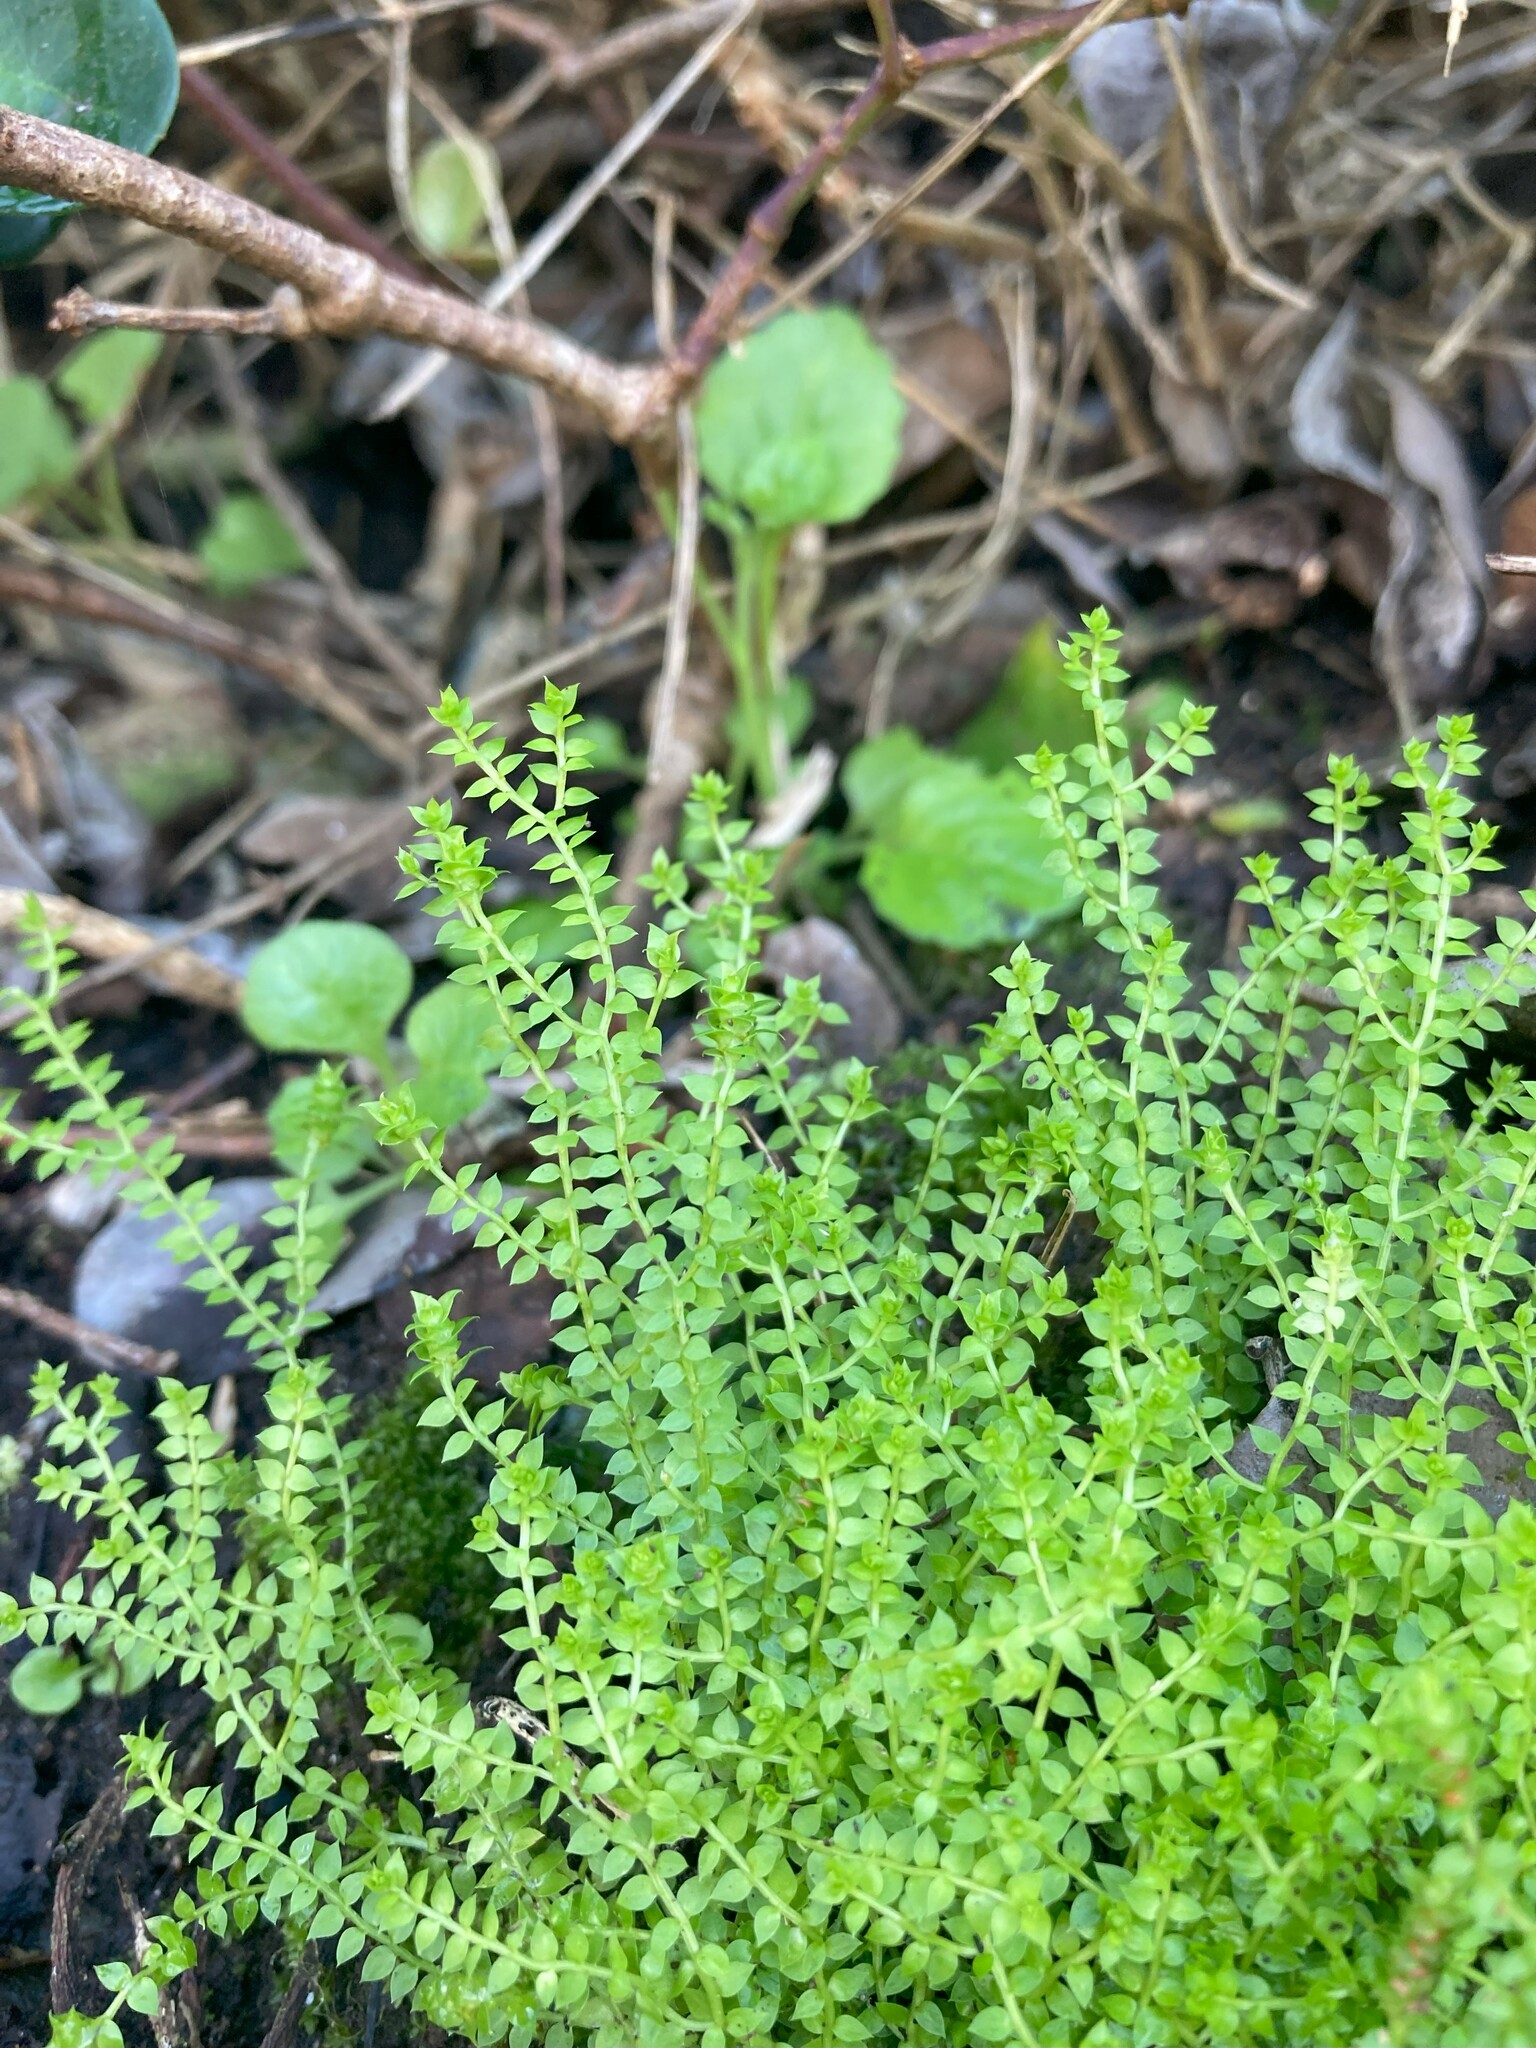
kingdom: Plantae
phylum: Tracheophyta
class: Lycopodiopsida
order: Selaginellales
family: Selaginellaceae
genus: Selaginella
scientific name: Selaginella pygmaea
